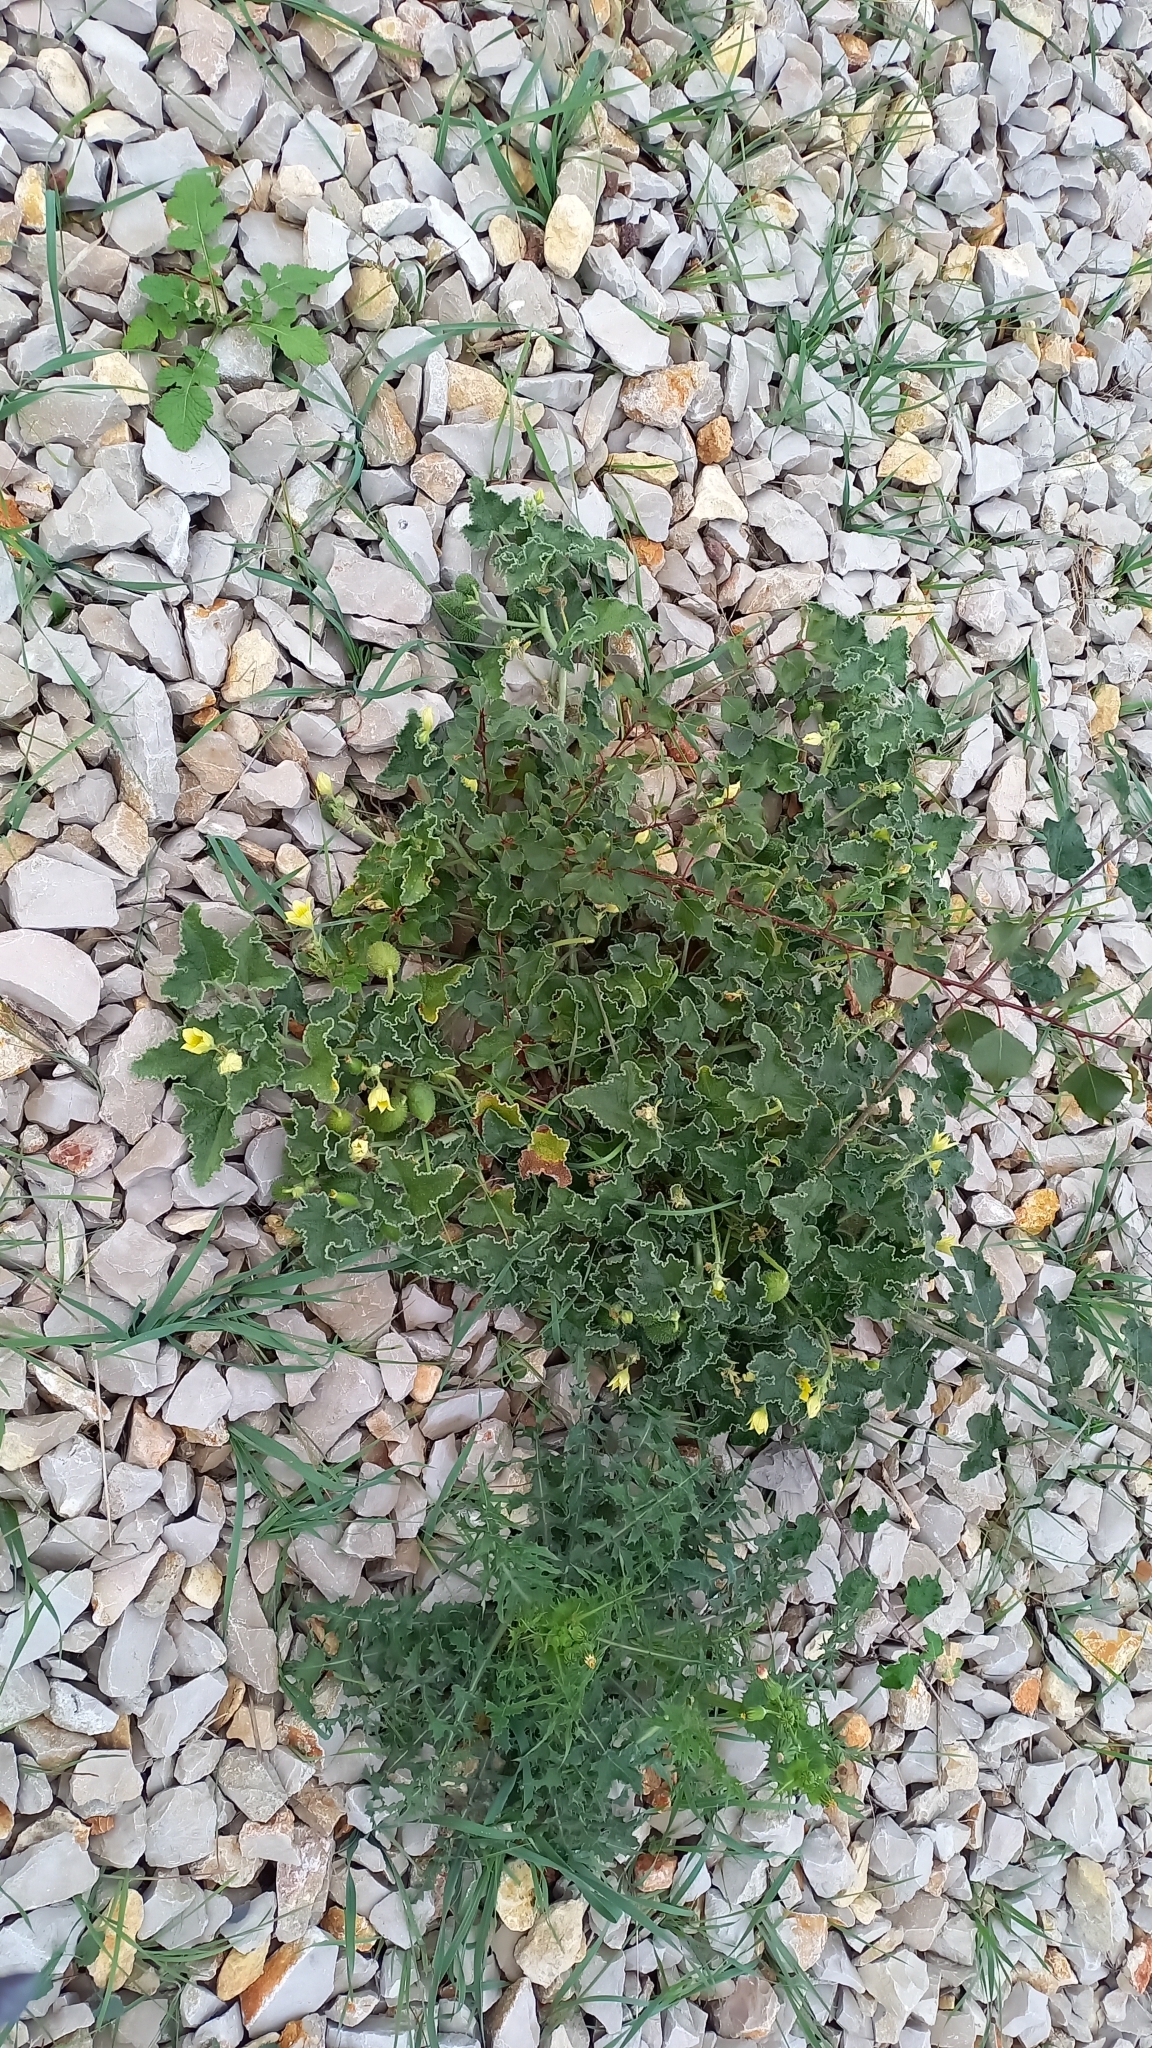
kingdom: Plantae
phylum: Tracheophyta
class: Magnoliopsida
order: Cucurbitales
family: Cucurbitaceae
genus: Ecballium
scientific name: Ecballium elaterium
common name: Squirting cucumber
